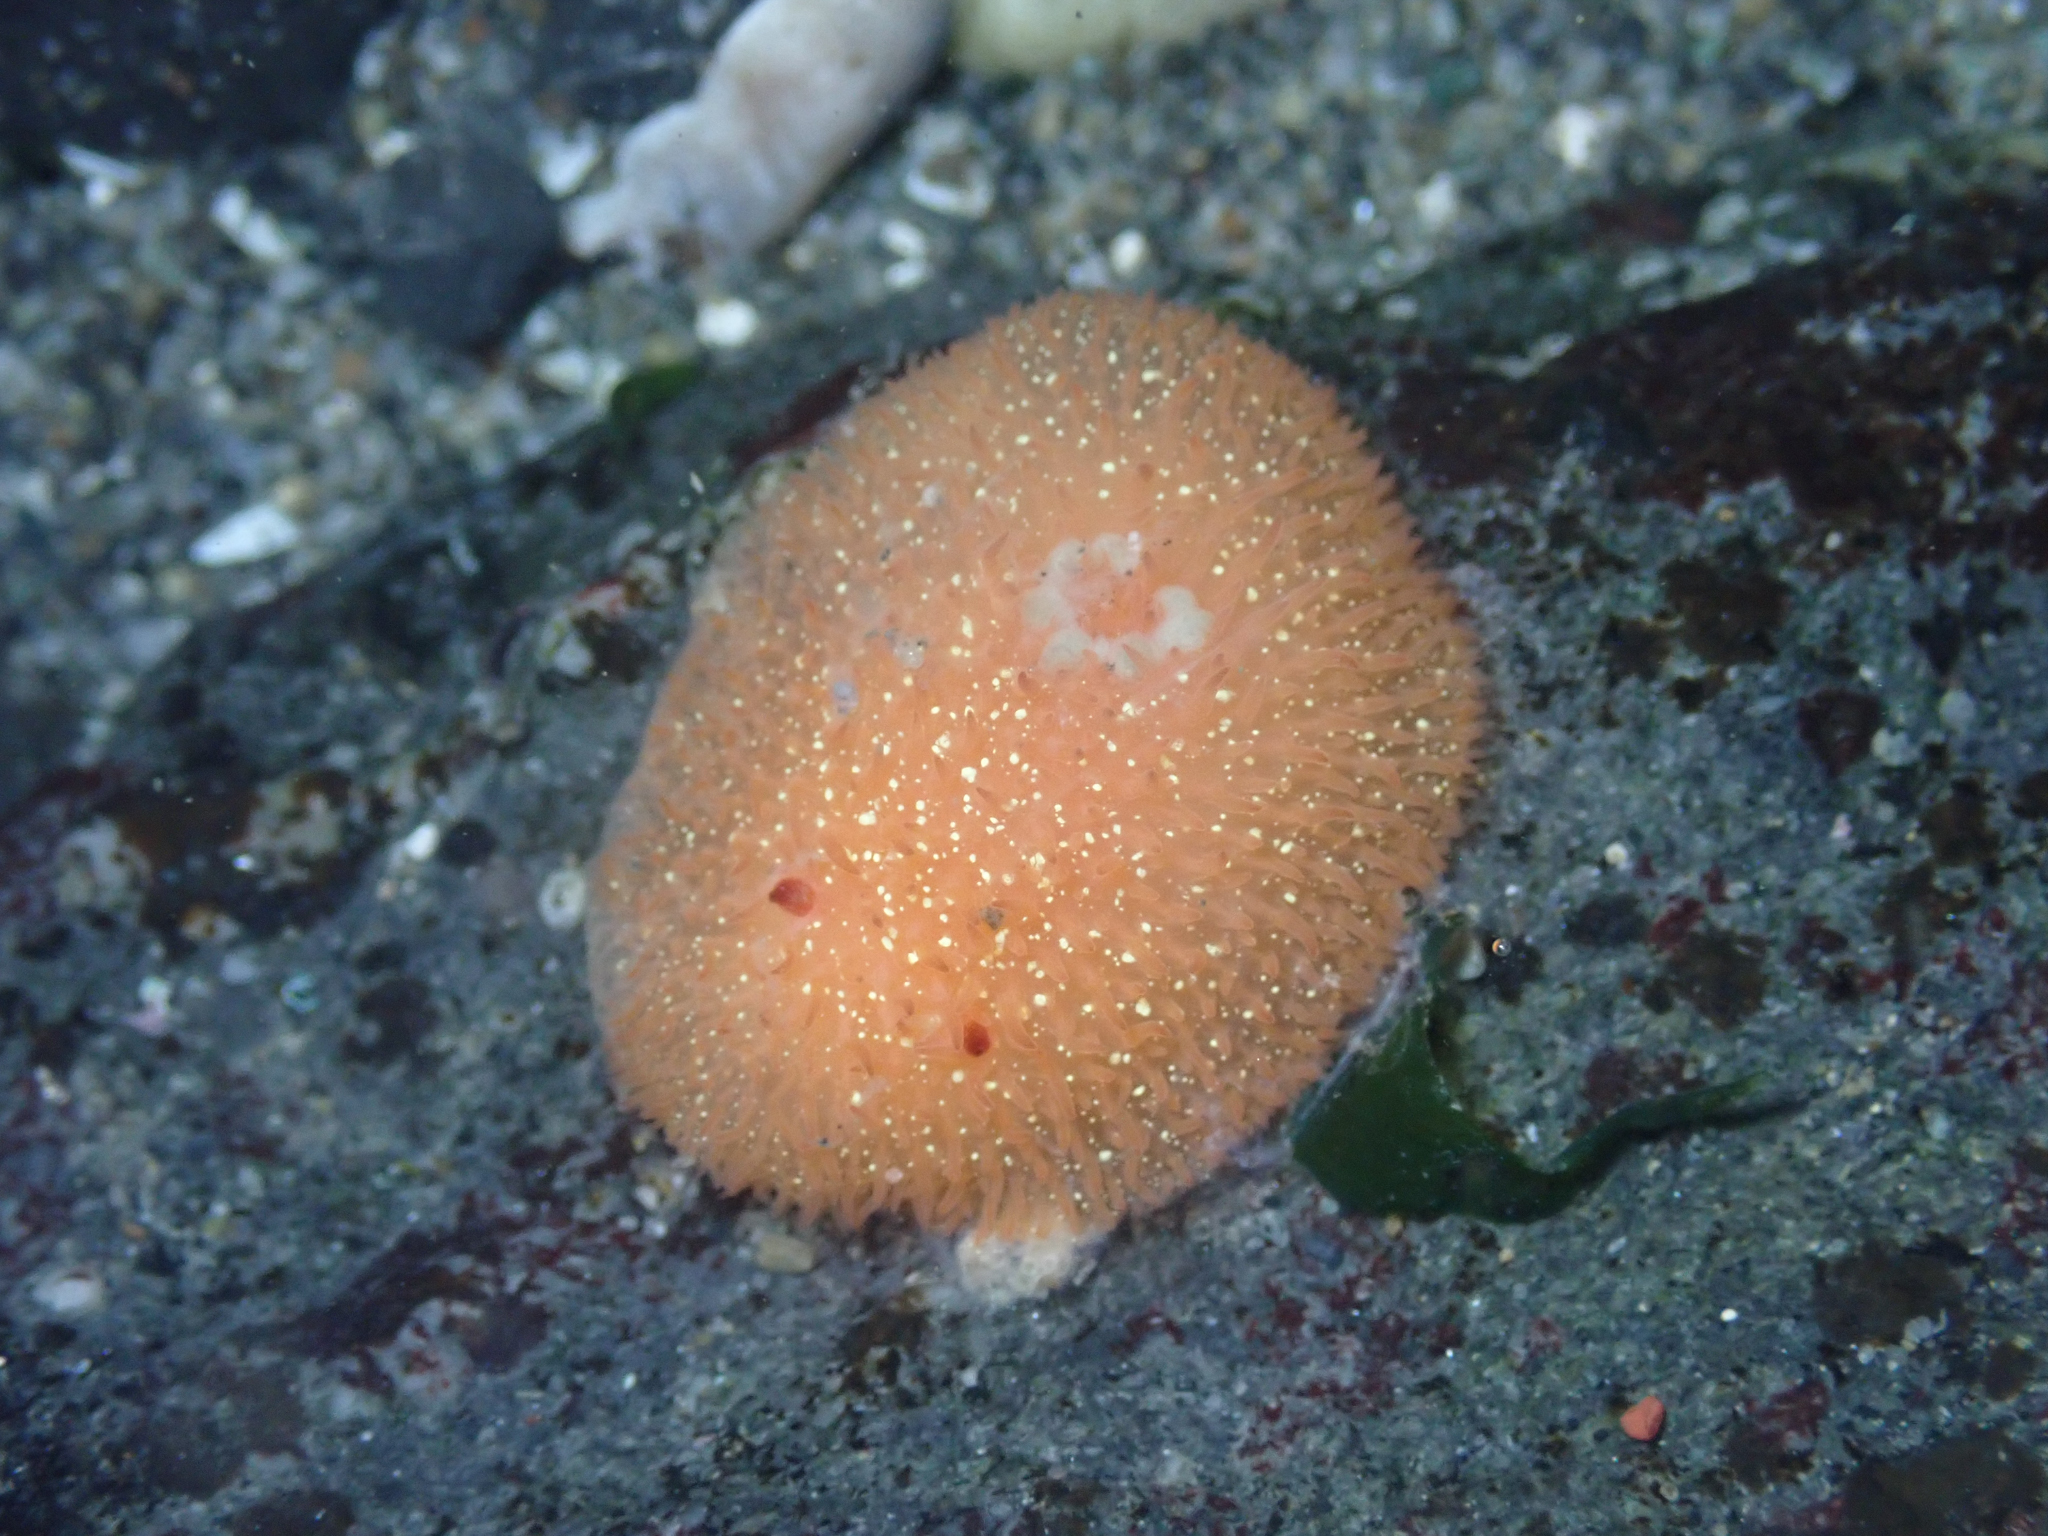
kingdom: Animalia
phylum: Mollusca
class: Gastropoda
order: Nudibranchia
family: Onchidorididae
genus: Acanthodoris
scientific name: Acanthodoris lutea
